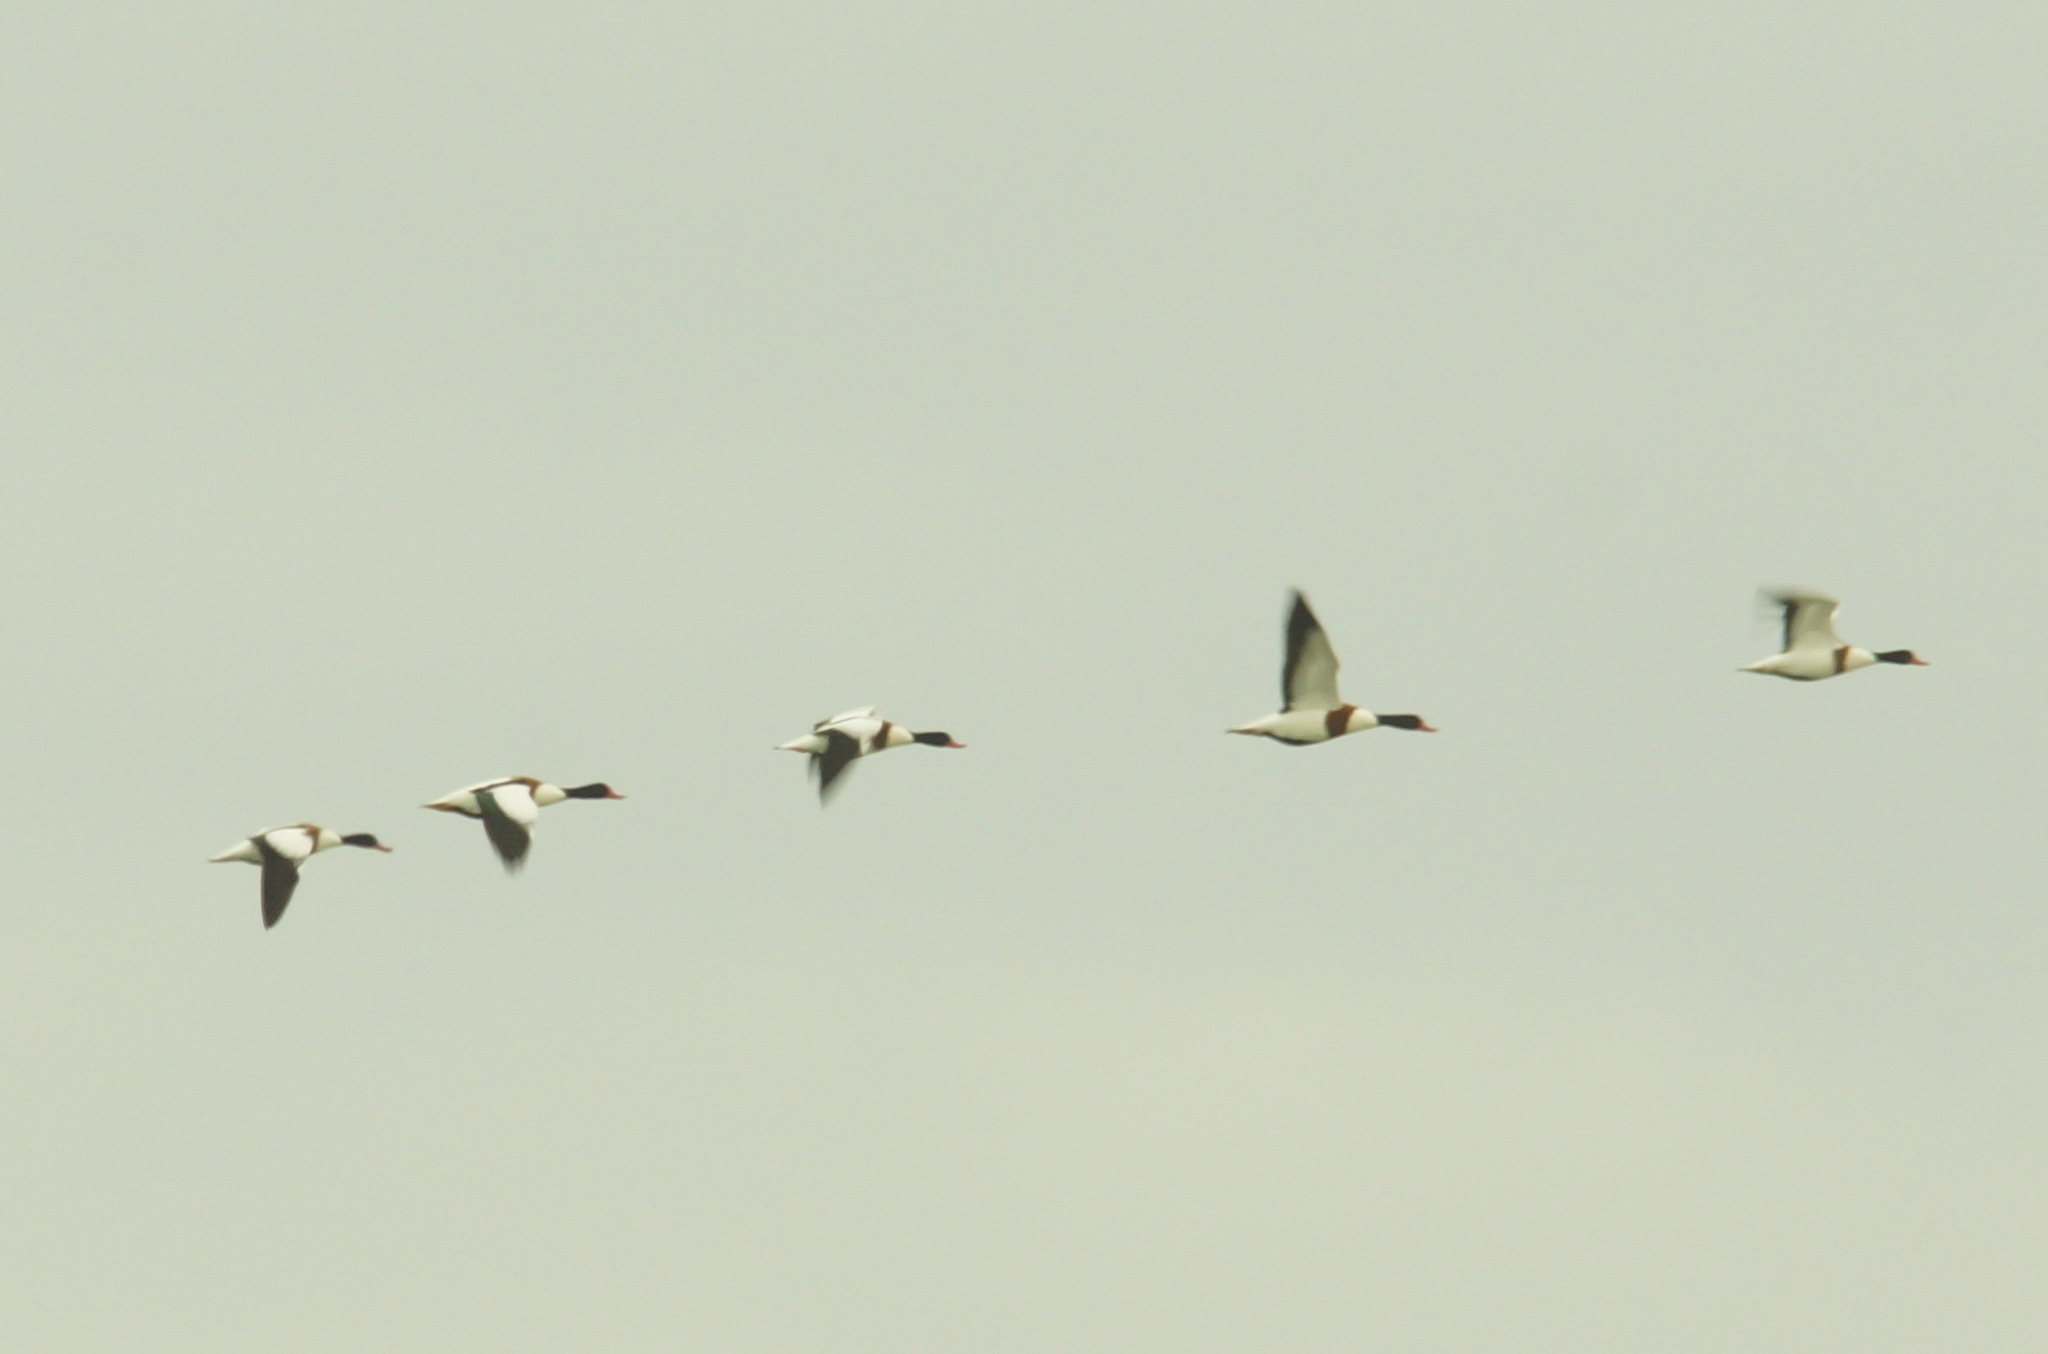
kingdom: Animalia
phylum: Chordata
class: Aves
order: Anseriformes
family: Anatidae
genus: Tadorna
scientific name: Tadorna tadorna
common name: Common shelduck
